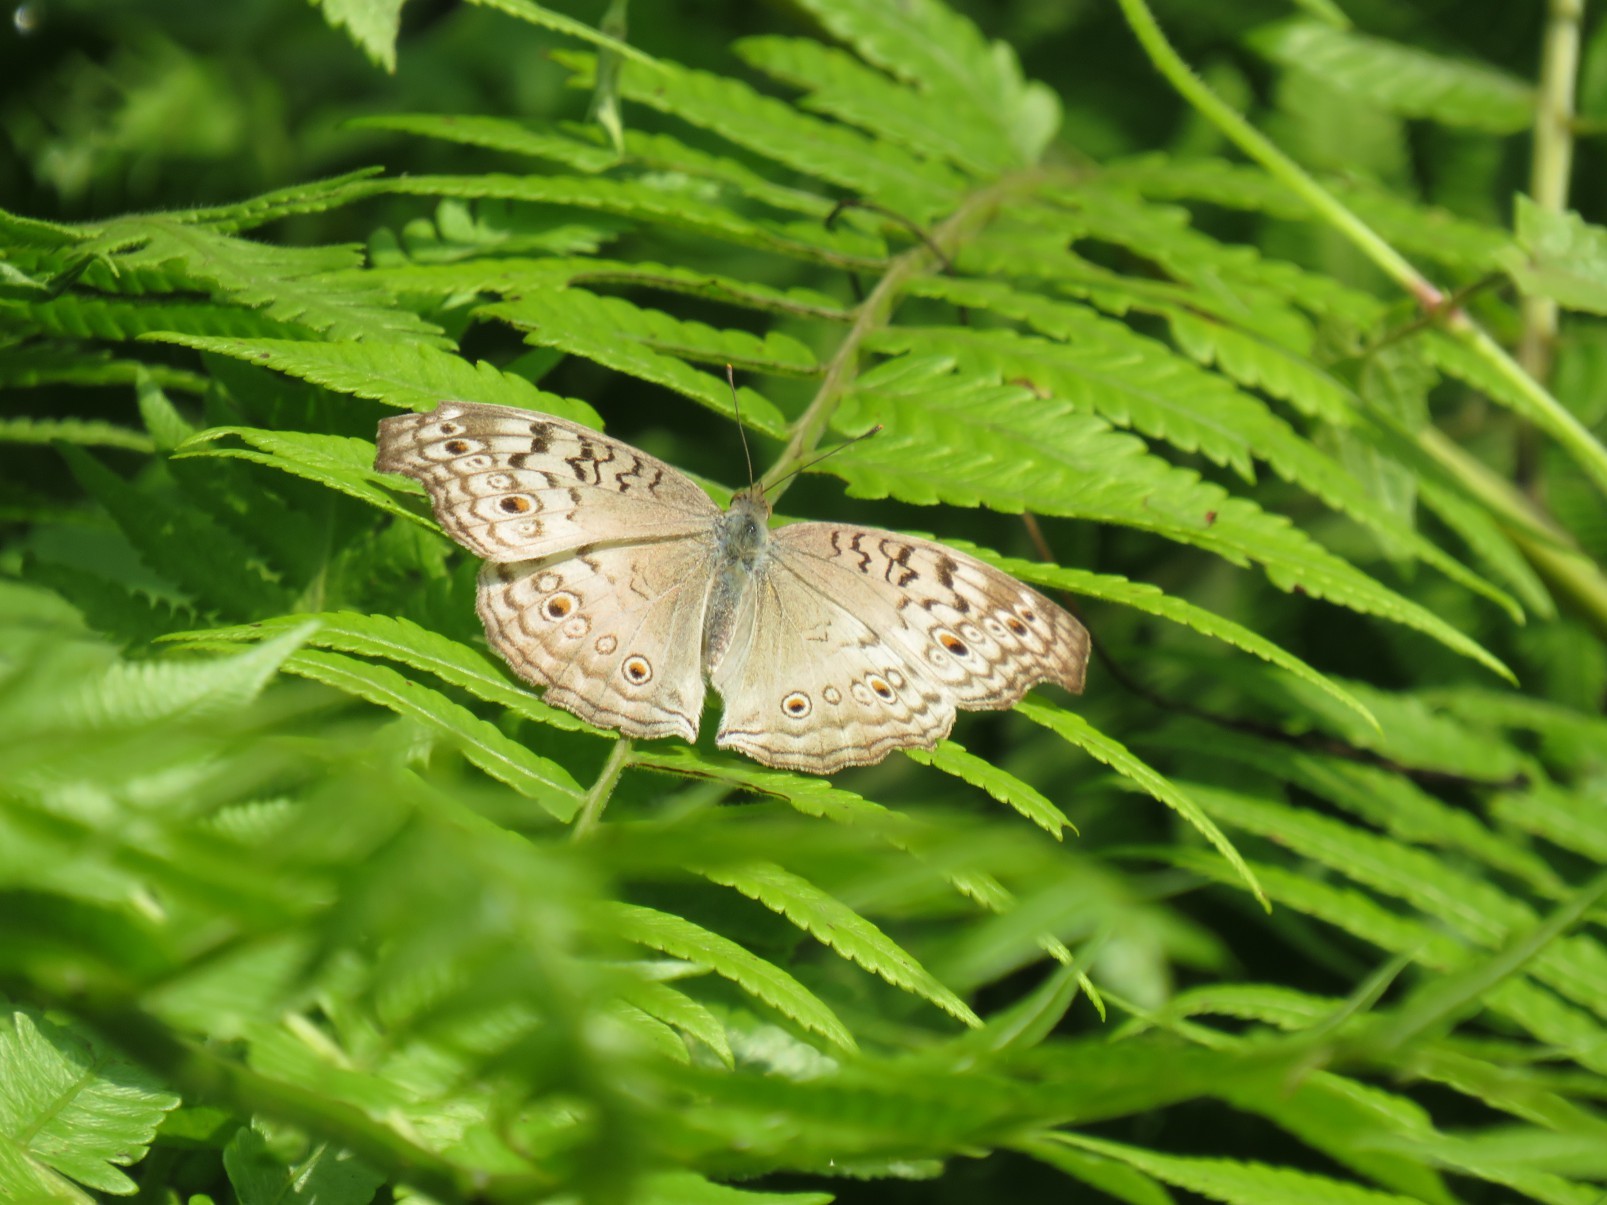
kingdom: Animalia
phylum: Arthropoda
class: Insecta
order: Lepidoptera
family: Nymphalidae
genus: Junonia
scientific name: Junonia atlites
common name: Grey pansy
